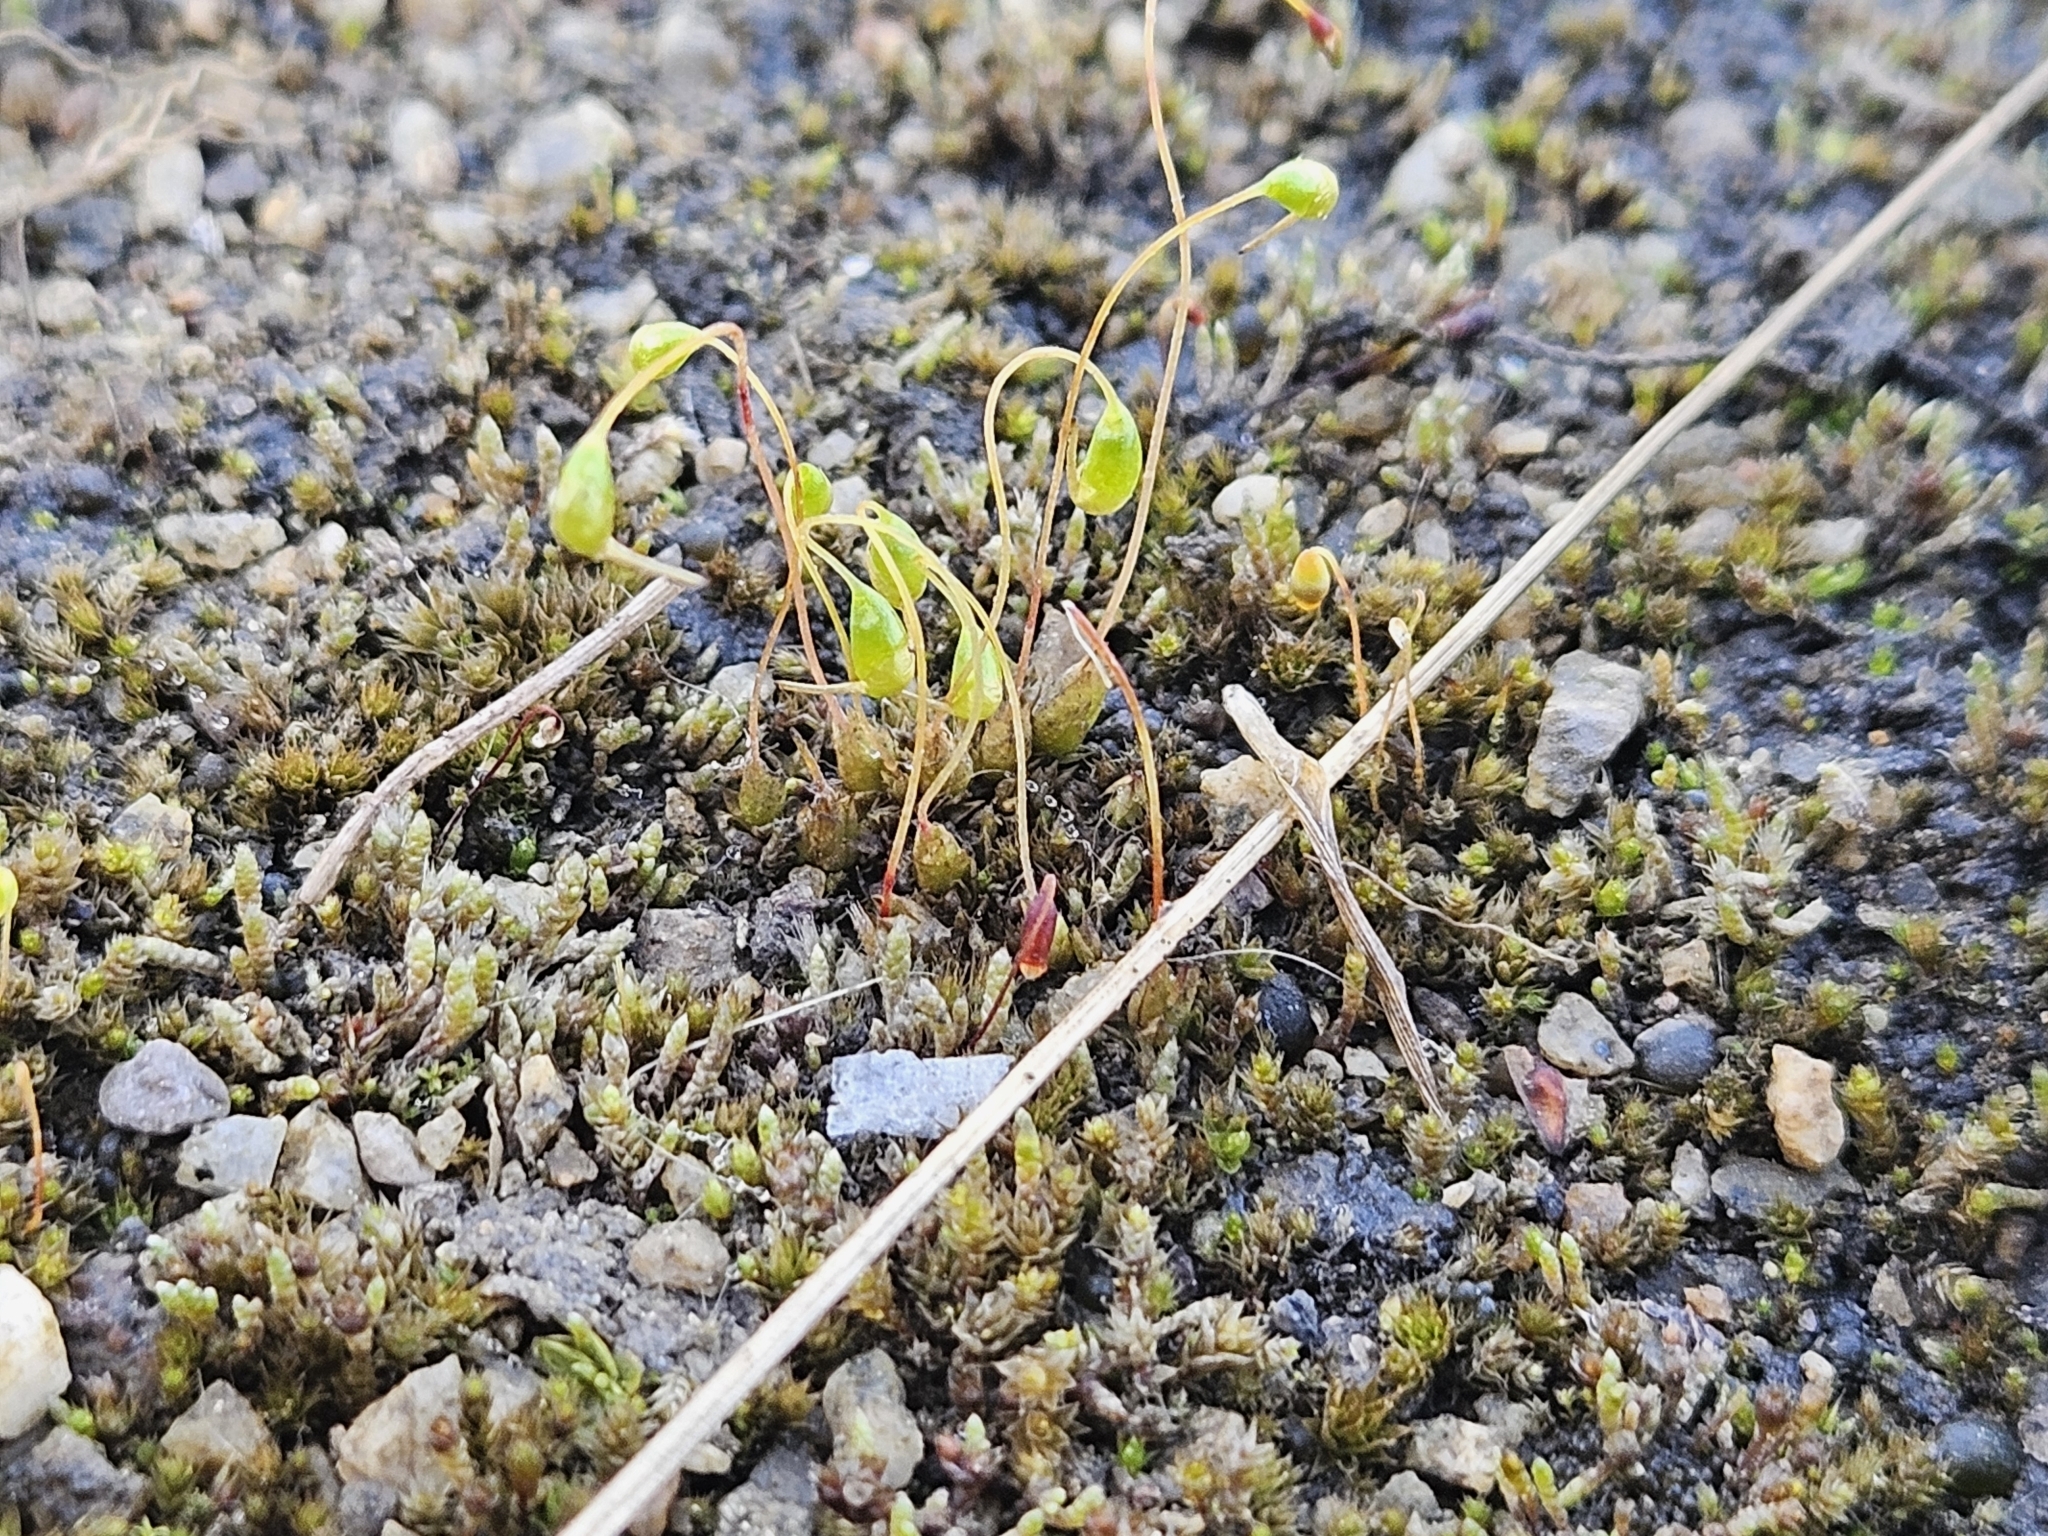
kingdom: Plantae
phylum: Bryophyta
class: Bryopsida
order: Funariales
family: Funariaceae
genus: Funaria
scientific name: Funaria hygrometrica
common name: Common cord moss
